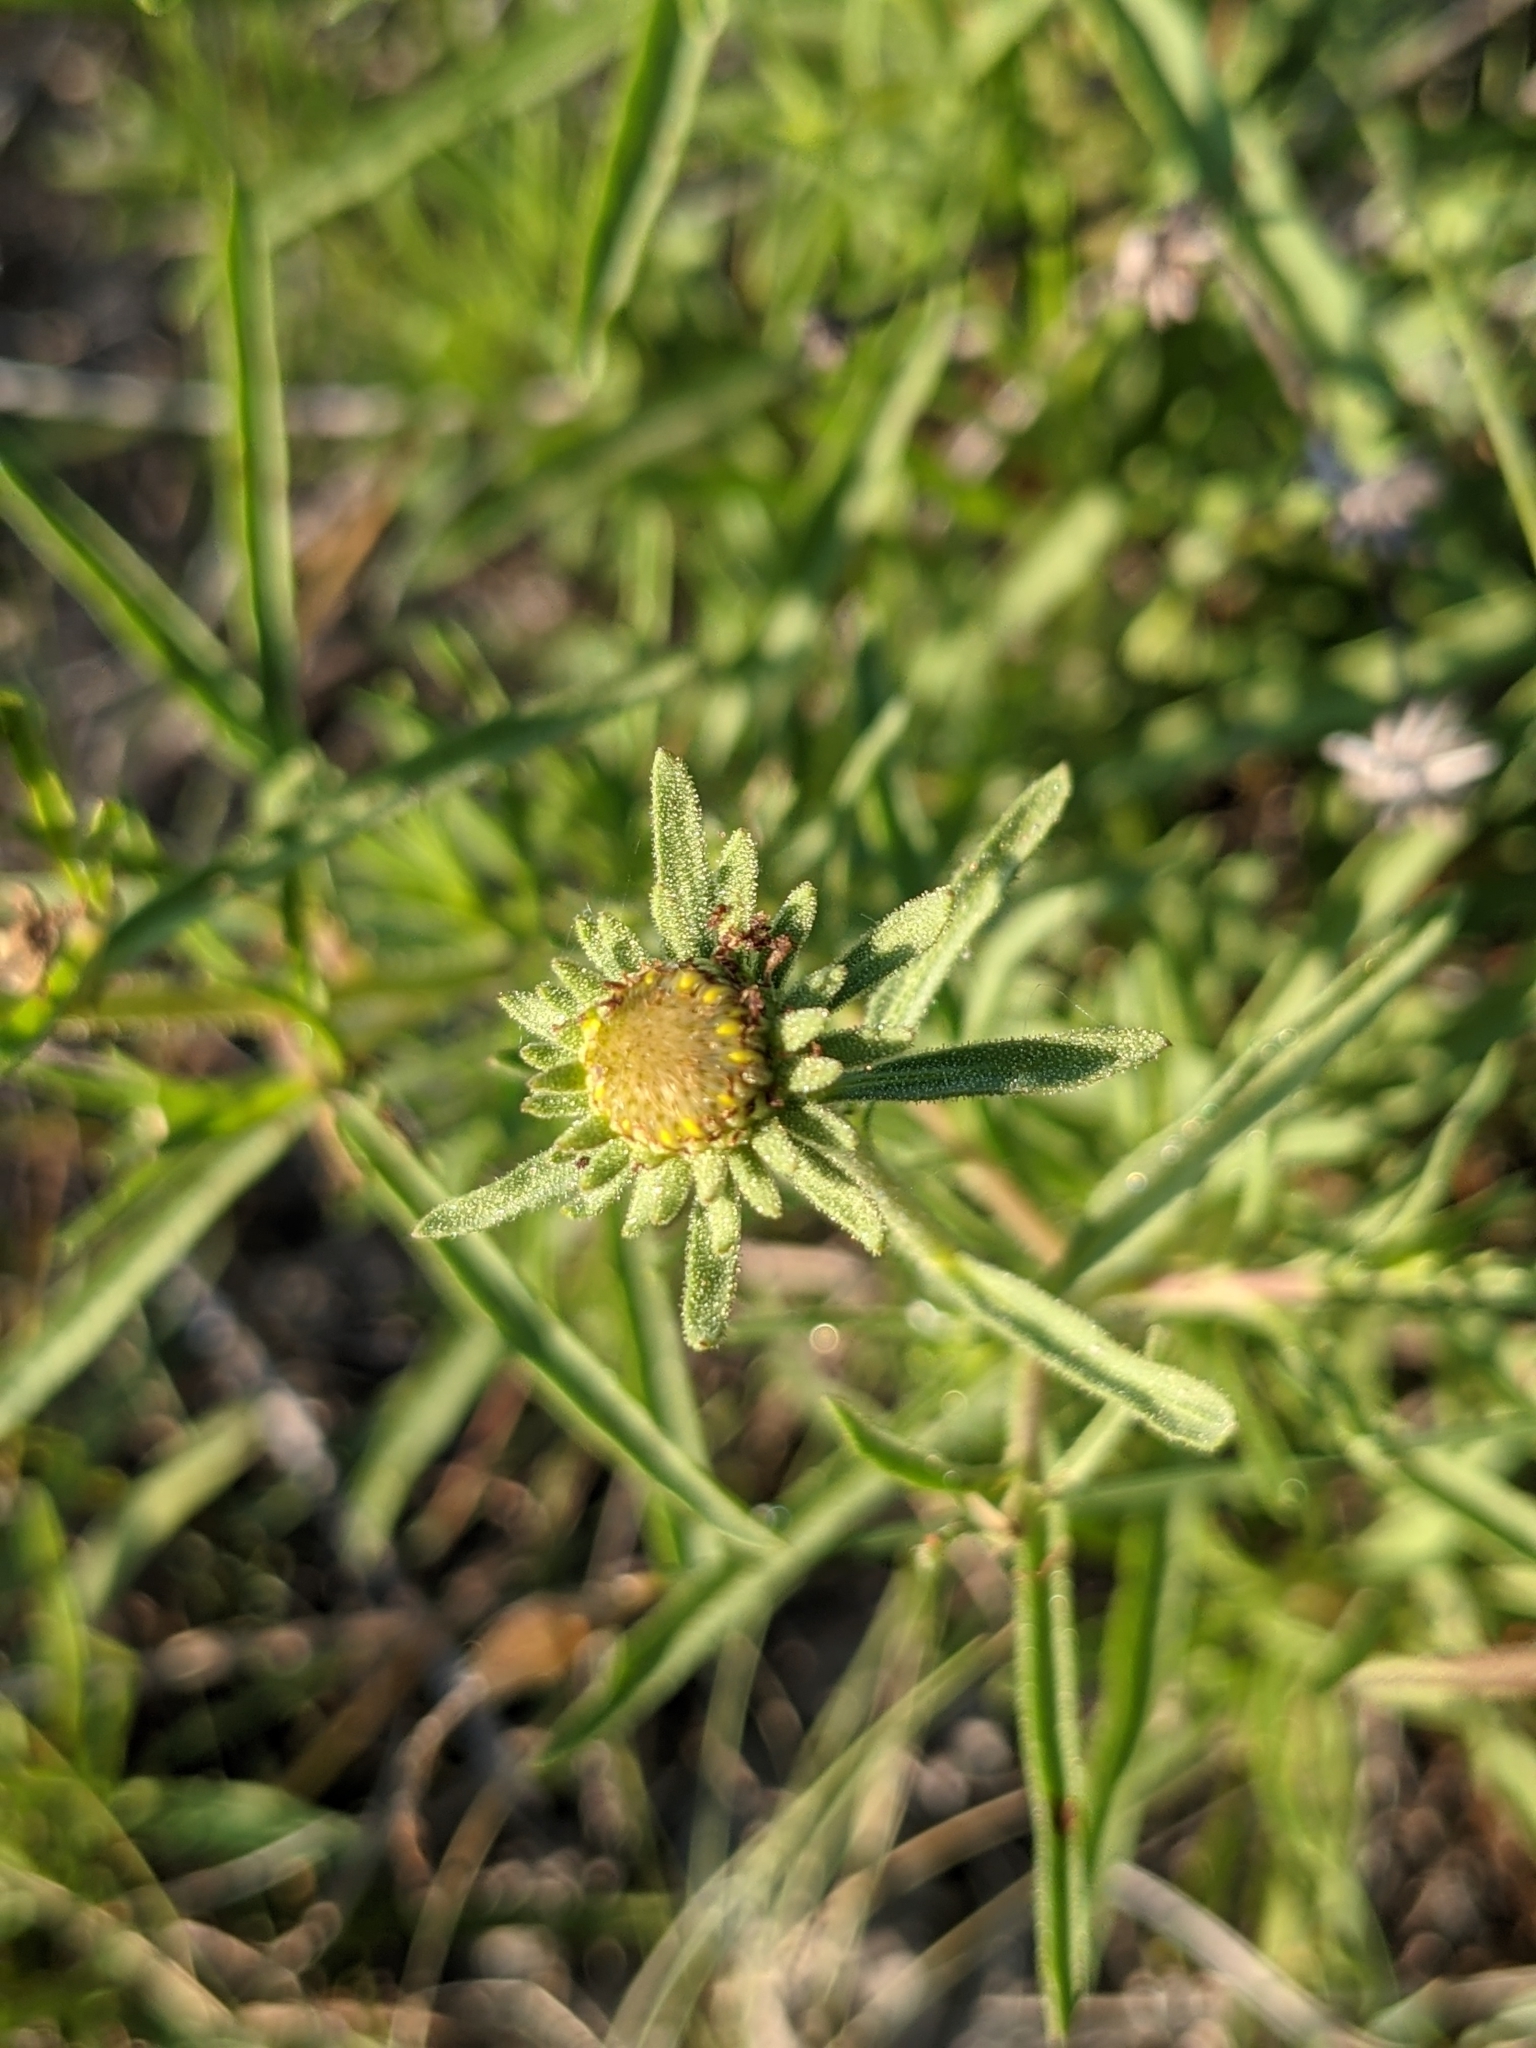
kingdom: Plantae
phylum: Tracheophyta
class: Magnoliopsida
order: Asterales
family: Asteraceae
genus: Jasonia
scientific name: Jasonia tuberosa
